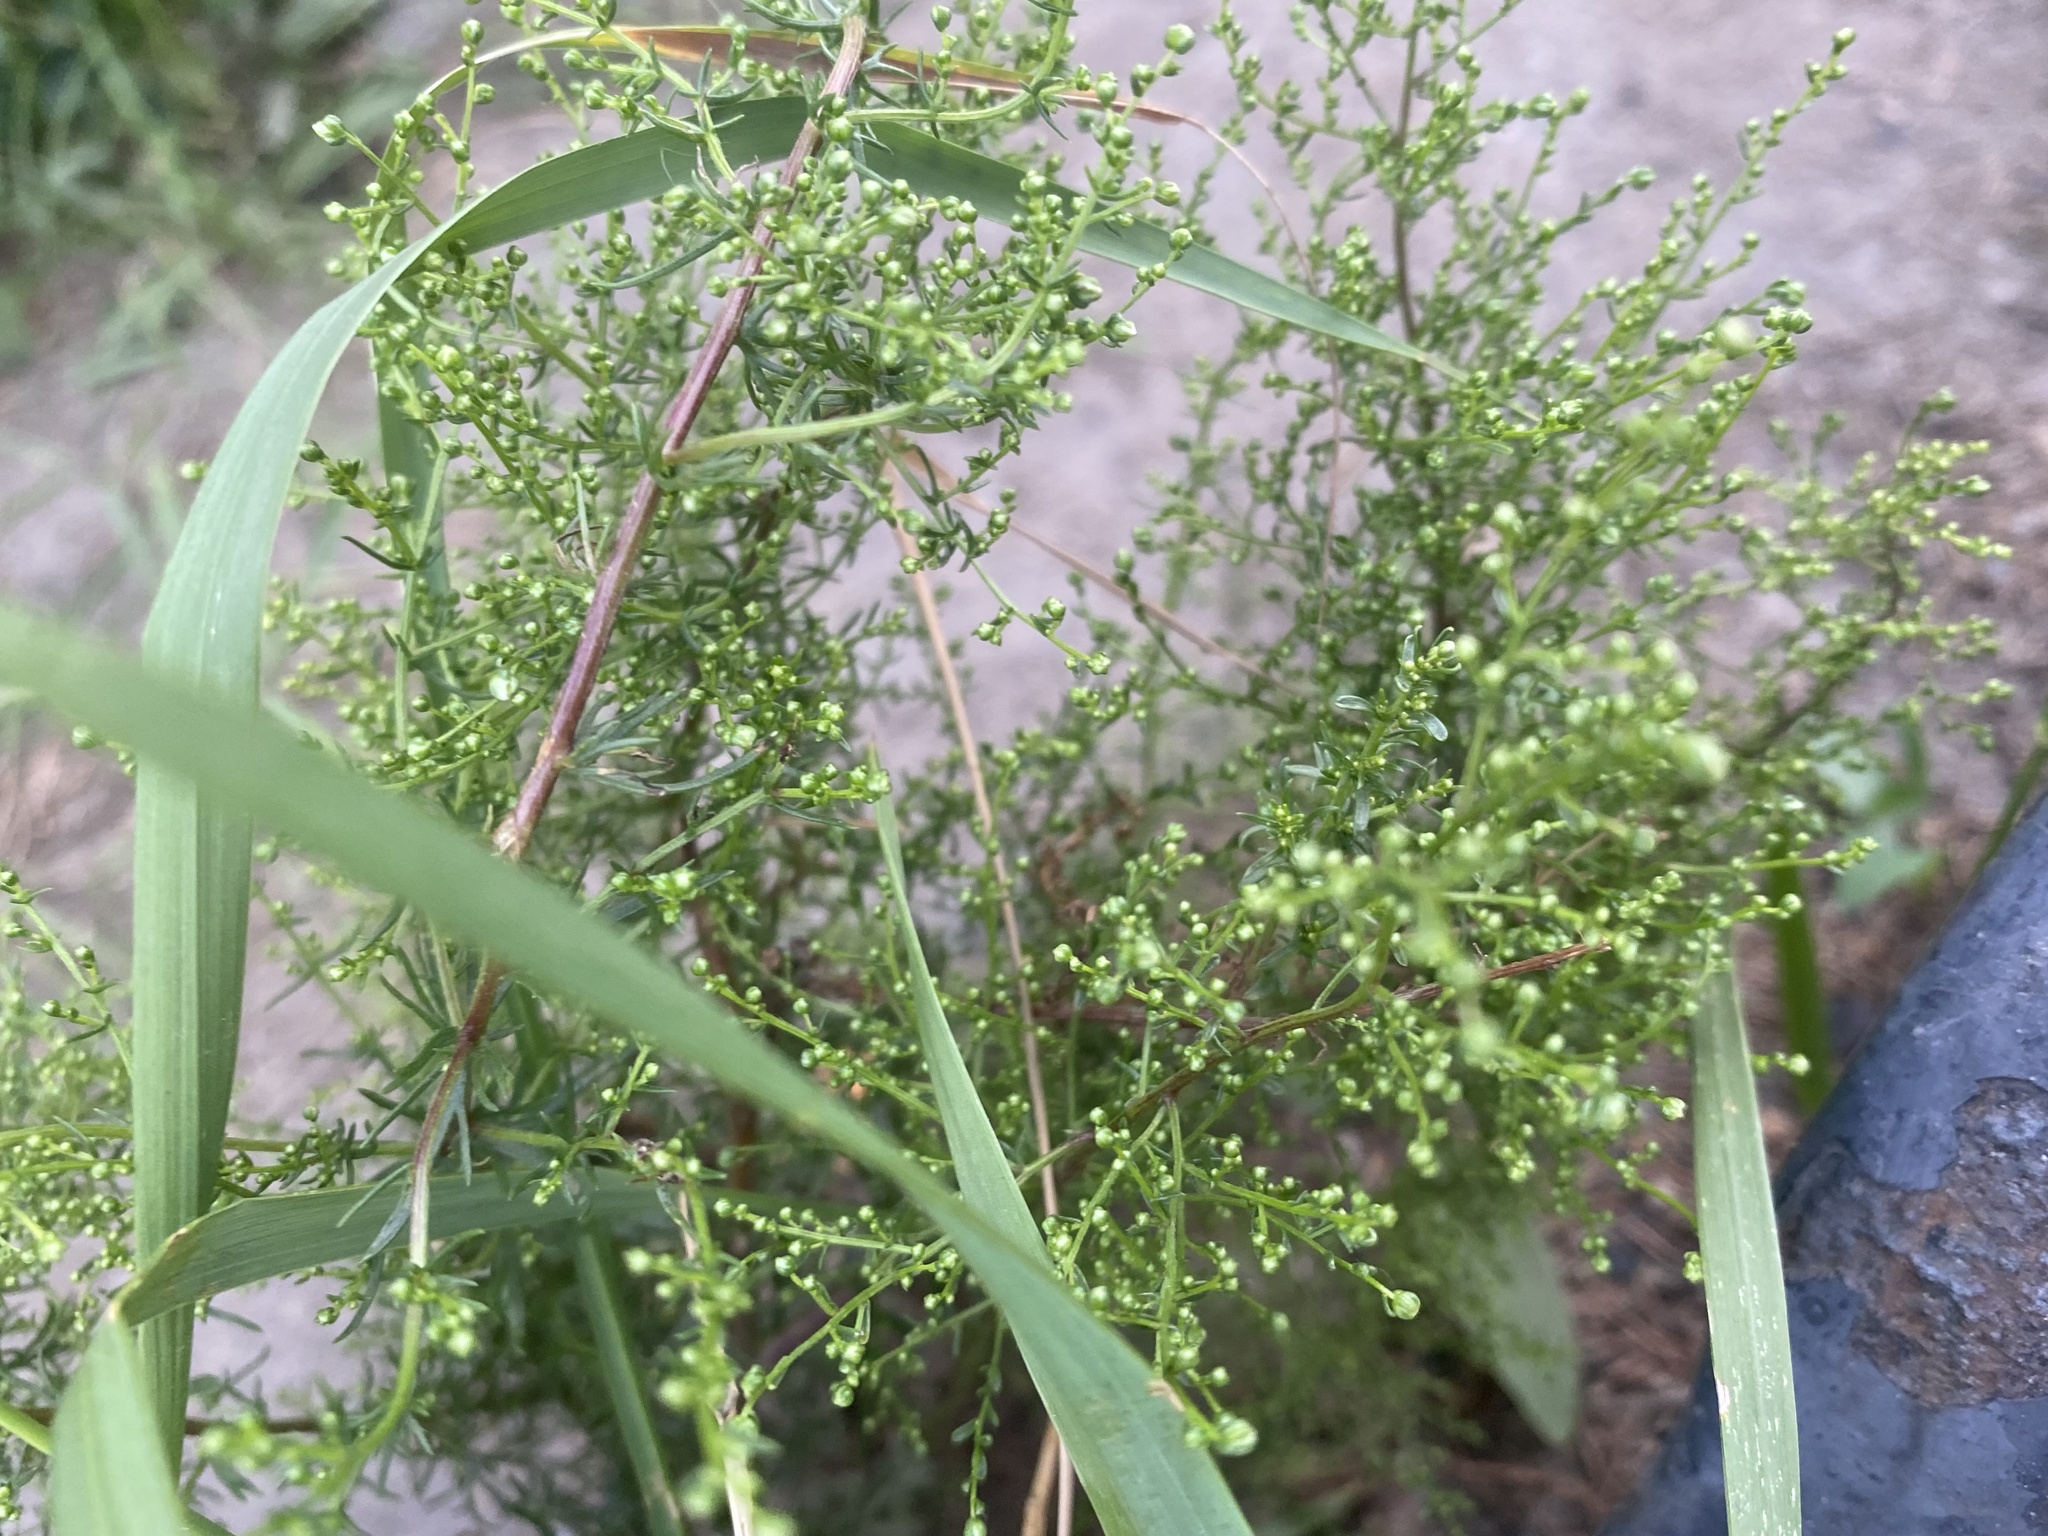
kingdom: Plantae
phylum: Tracheophyta
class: Magnoliopsida
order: Asterales
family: Asteraceae
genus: Artemisia
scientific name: Artemisia scoparia
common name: Redstem wormwood
